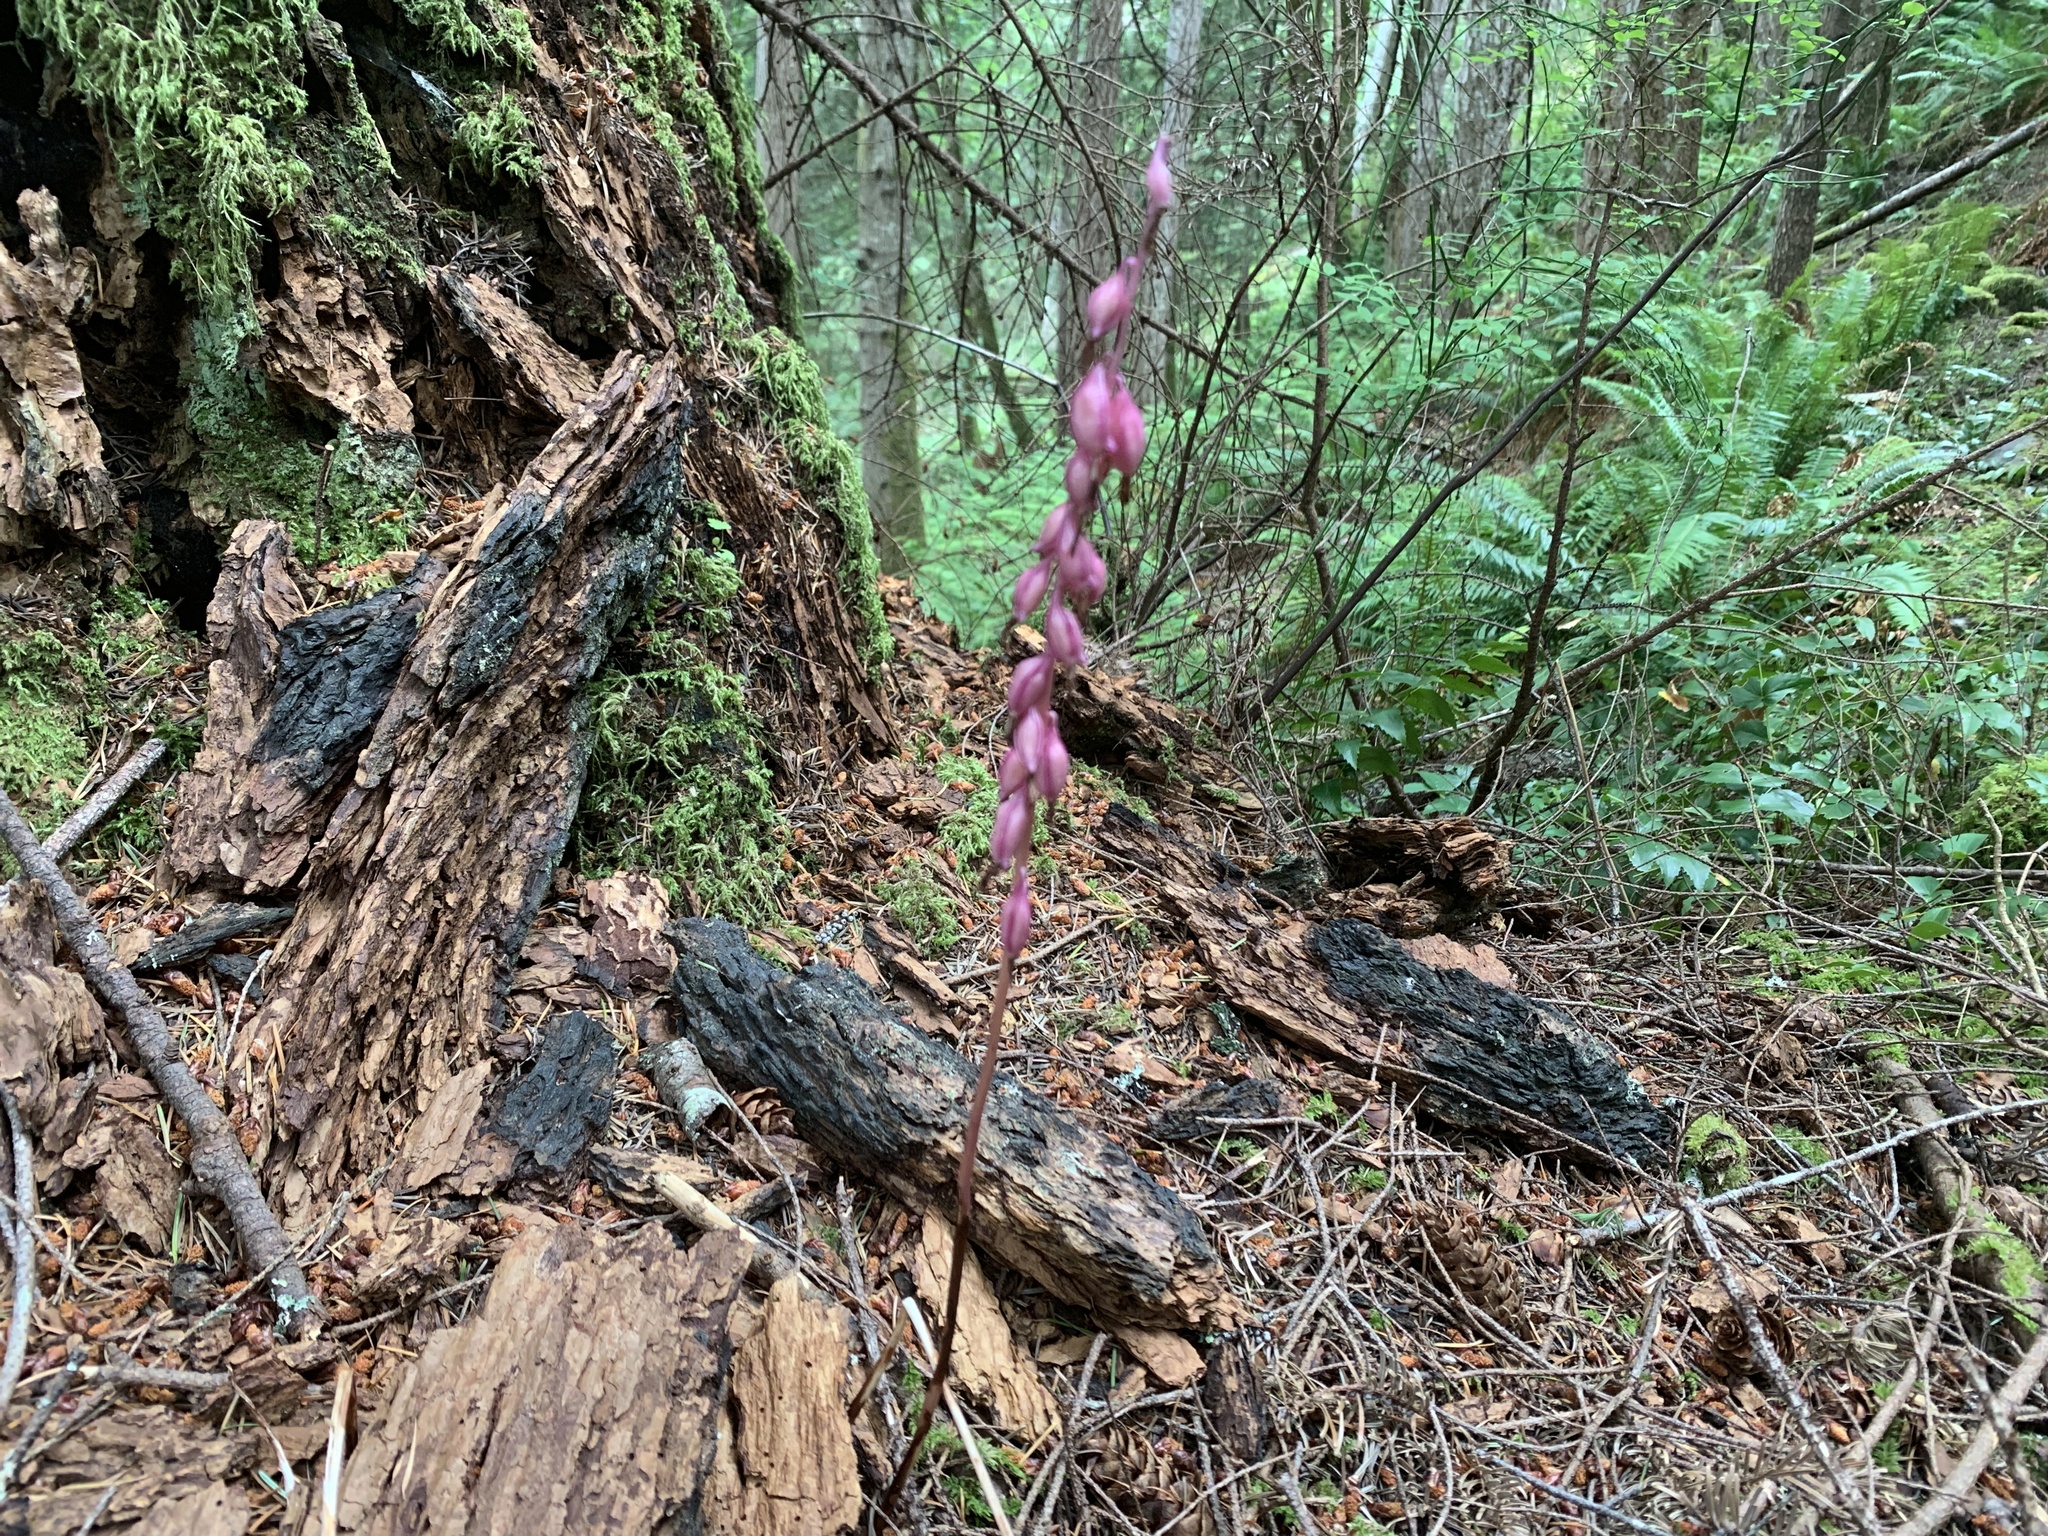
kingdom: Plantae
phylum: Tracheophyta
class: Liliopsida
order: Asparagales
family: Orchidaceae
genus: Corallorhiza
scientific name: Corallorhiza mertensiana
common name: Pacific coralroot
